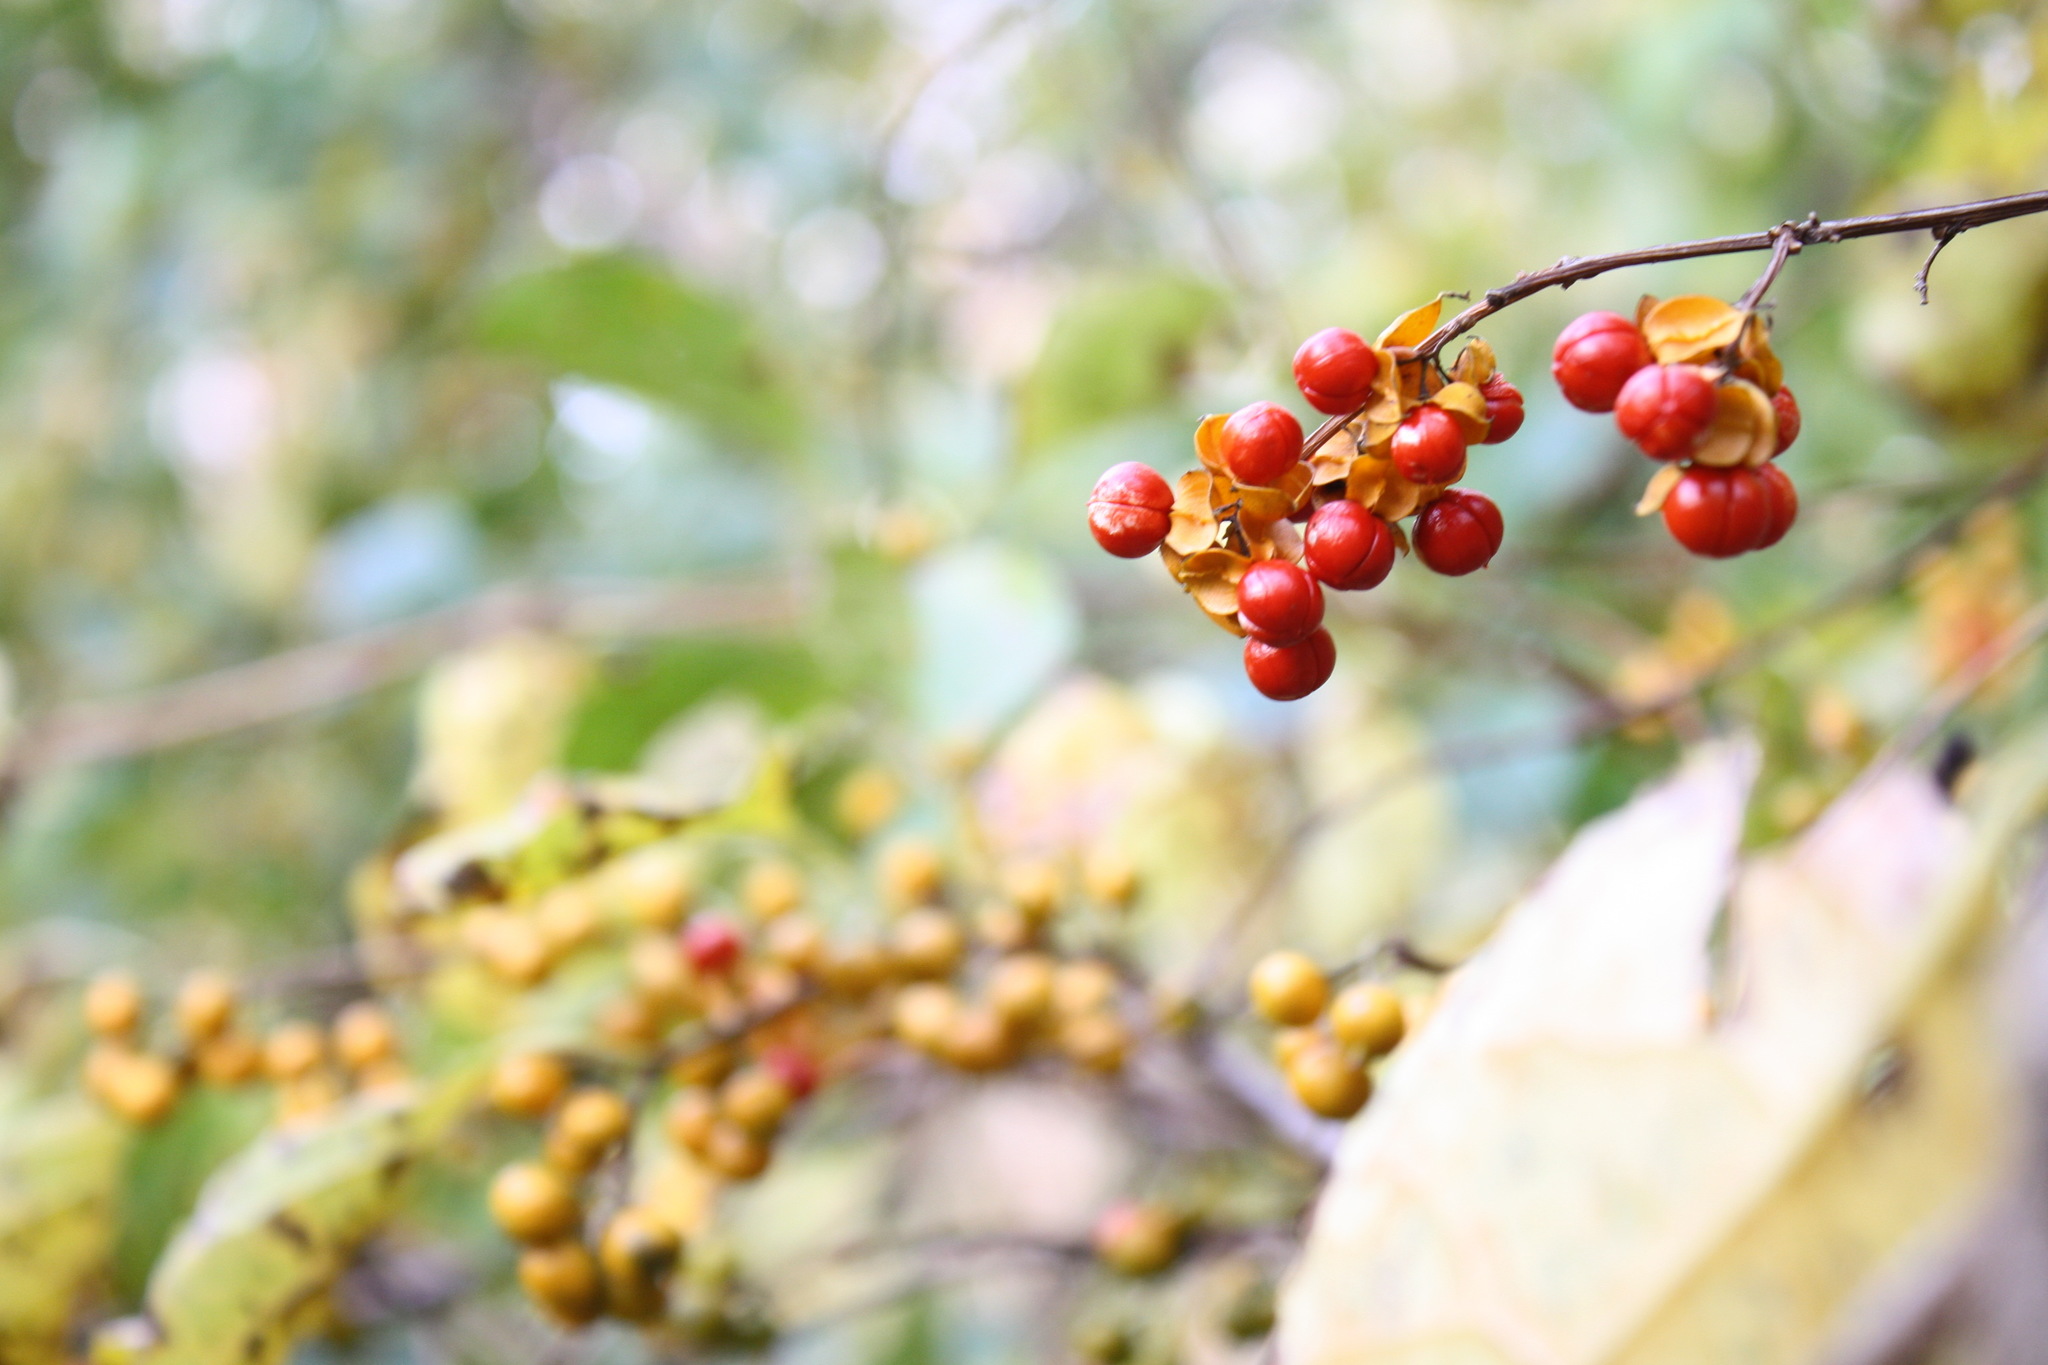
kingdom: Plantae
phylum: Tracheophyta
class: Magnoliopsida
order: Celastrales
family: Celastraceae
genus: Celastrus
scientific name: Celastrus orbiculatus
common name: Oriental bittersweet
